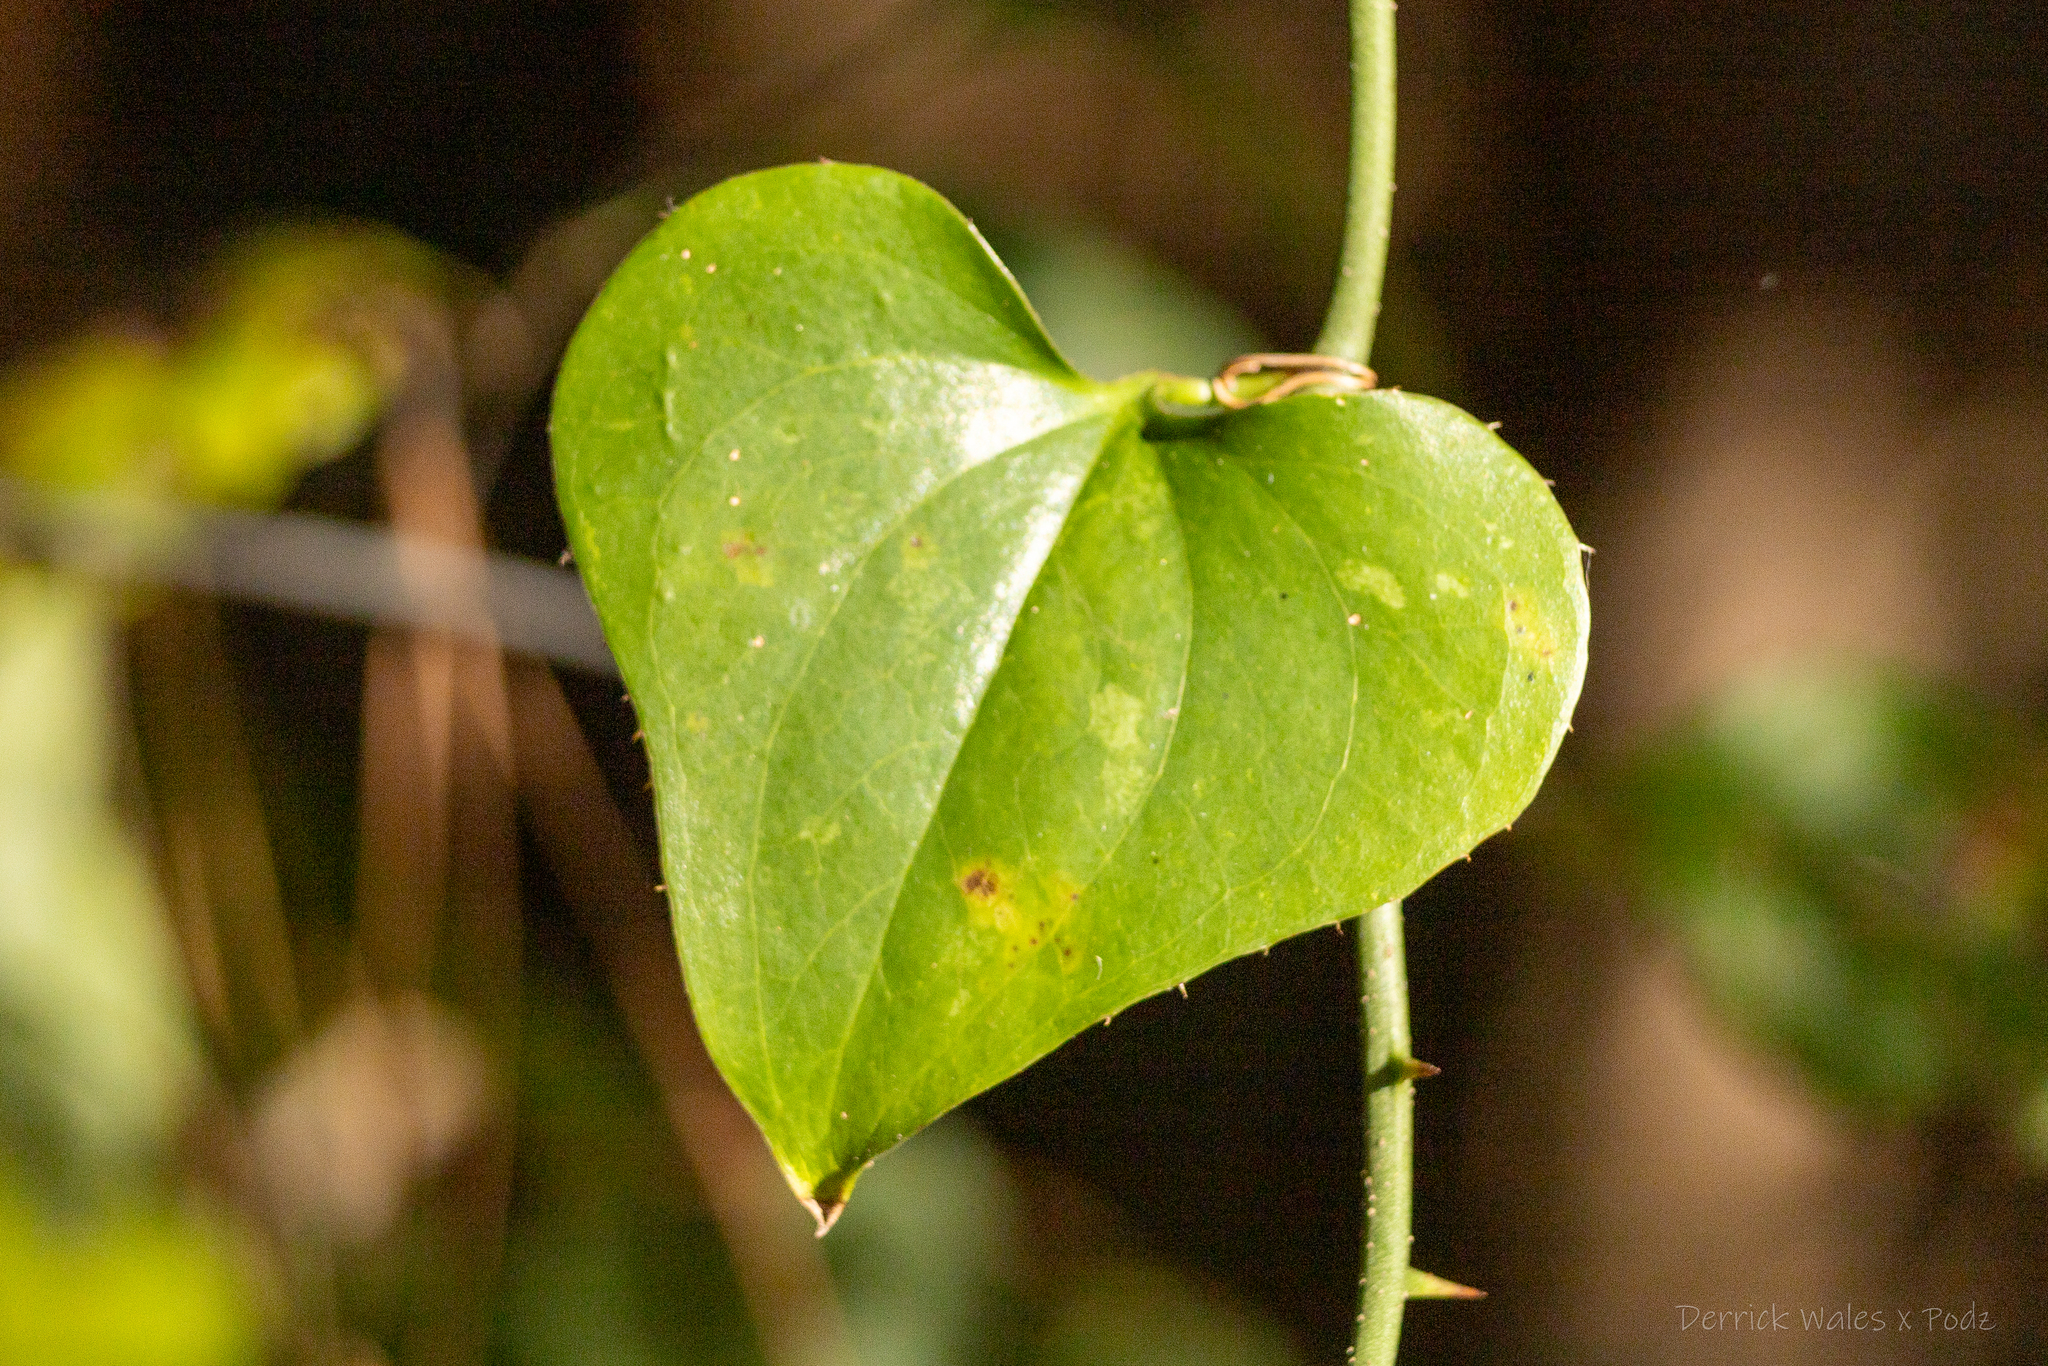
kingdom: Plantae
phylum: Tracheophyta
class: Liliopsida
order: Liliales
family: Smilacaceae
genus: Smilax
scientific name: Smilax bona-nox
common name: Catbrier
